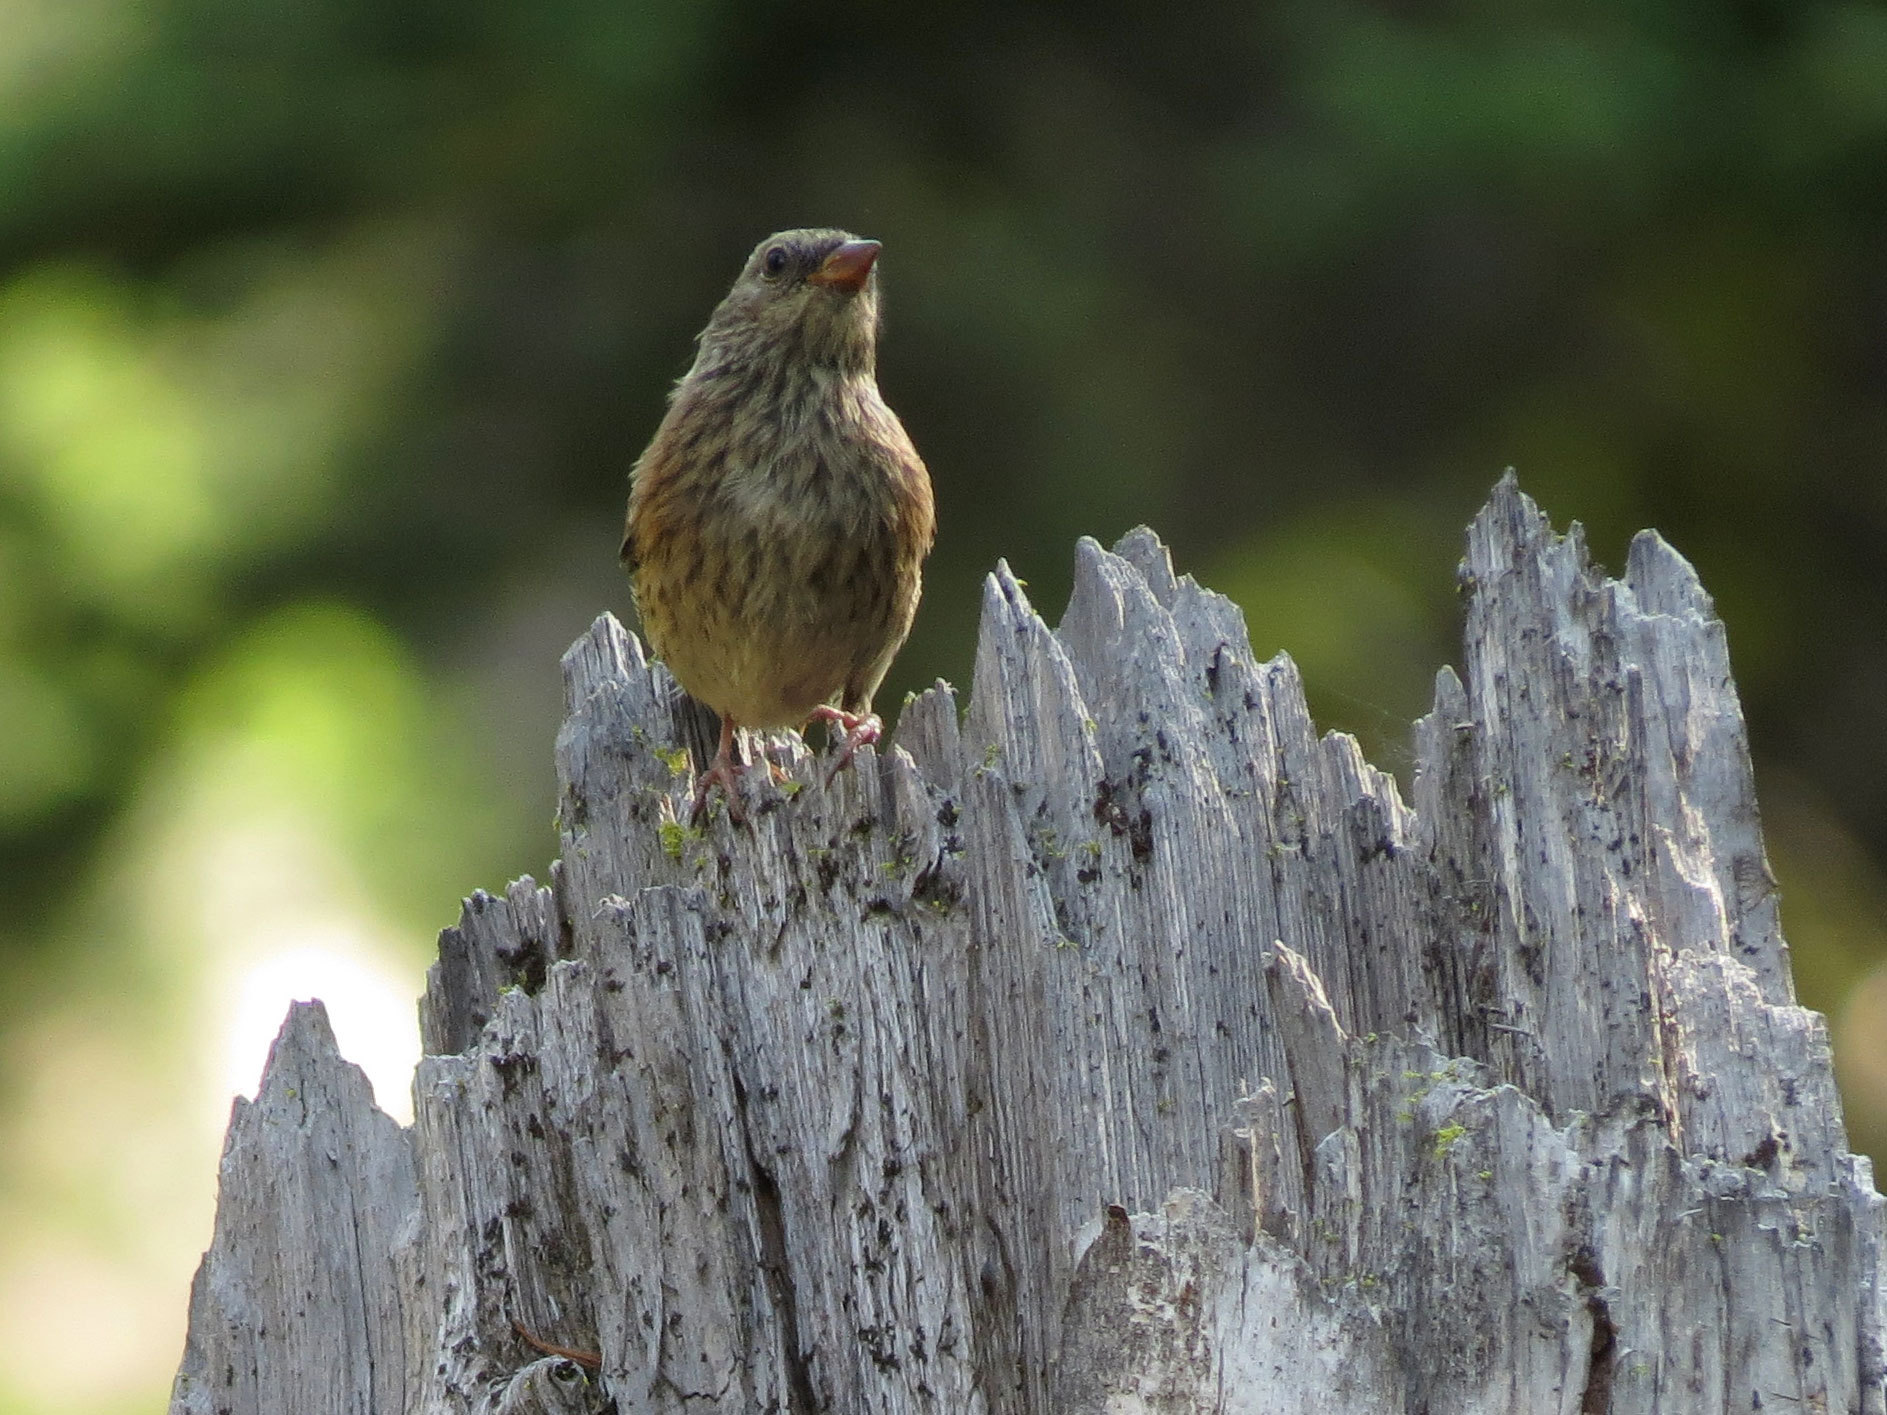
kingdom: Animalia
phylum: Chordata
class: Aves
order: Passeriformes
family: Passerellidae
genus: Junco
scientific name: Junco hyemalis
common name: Dark-eyed junco
